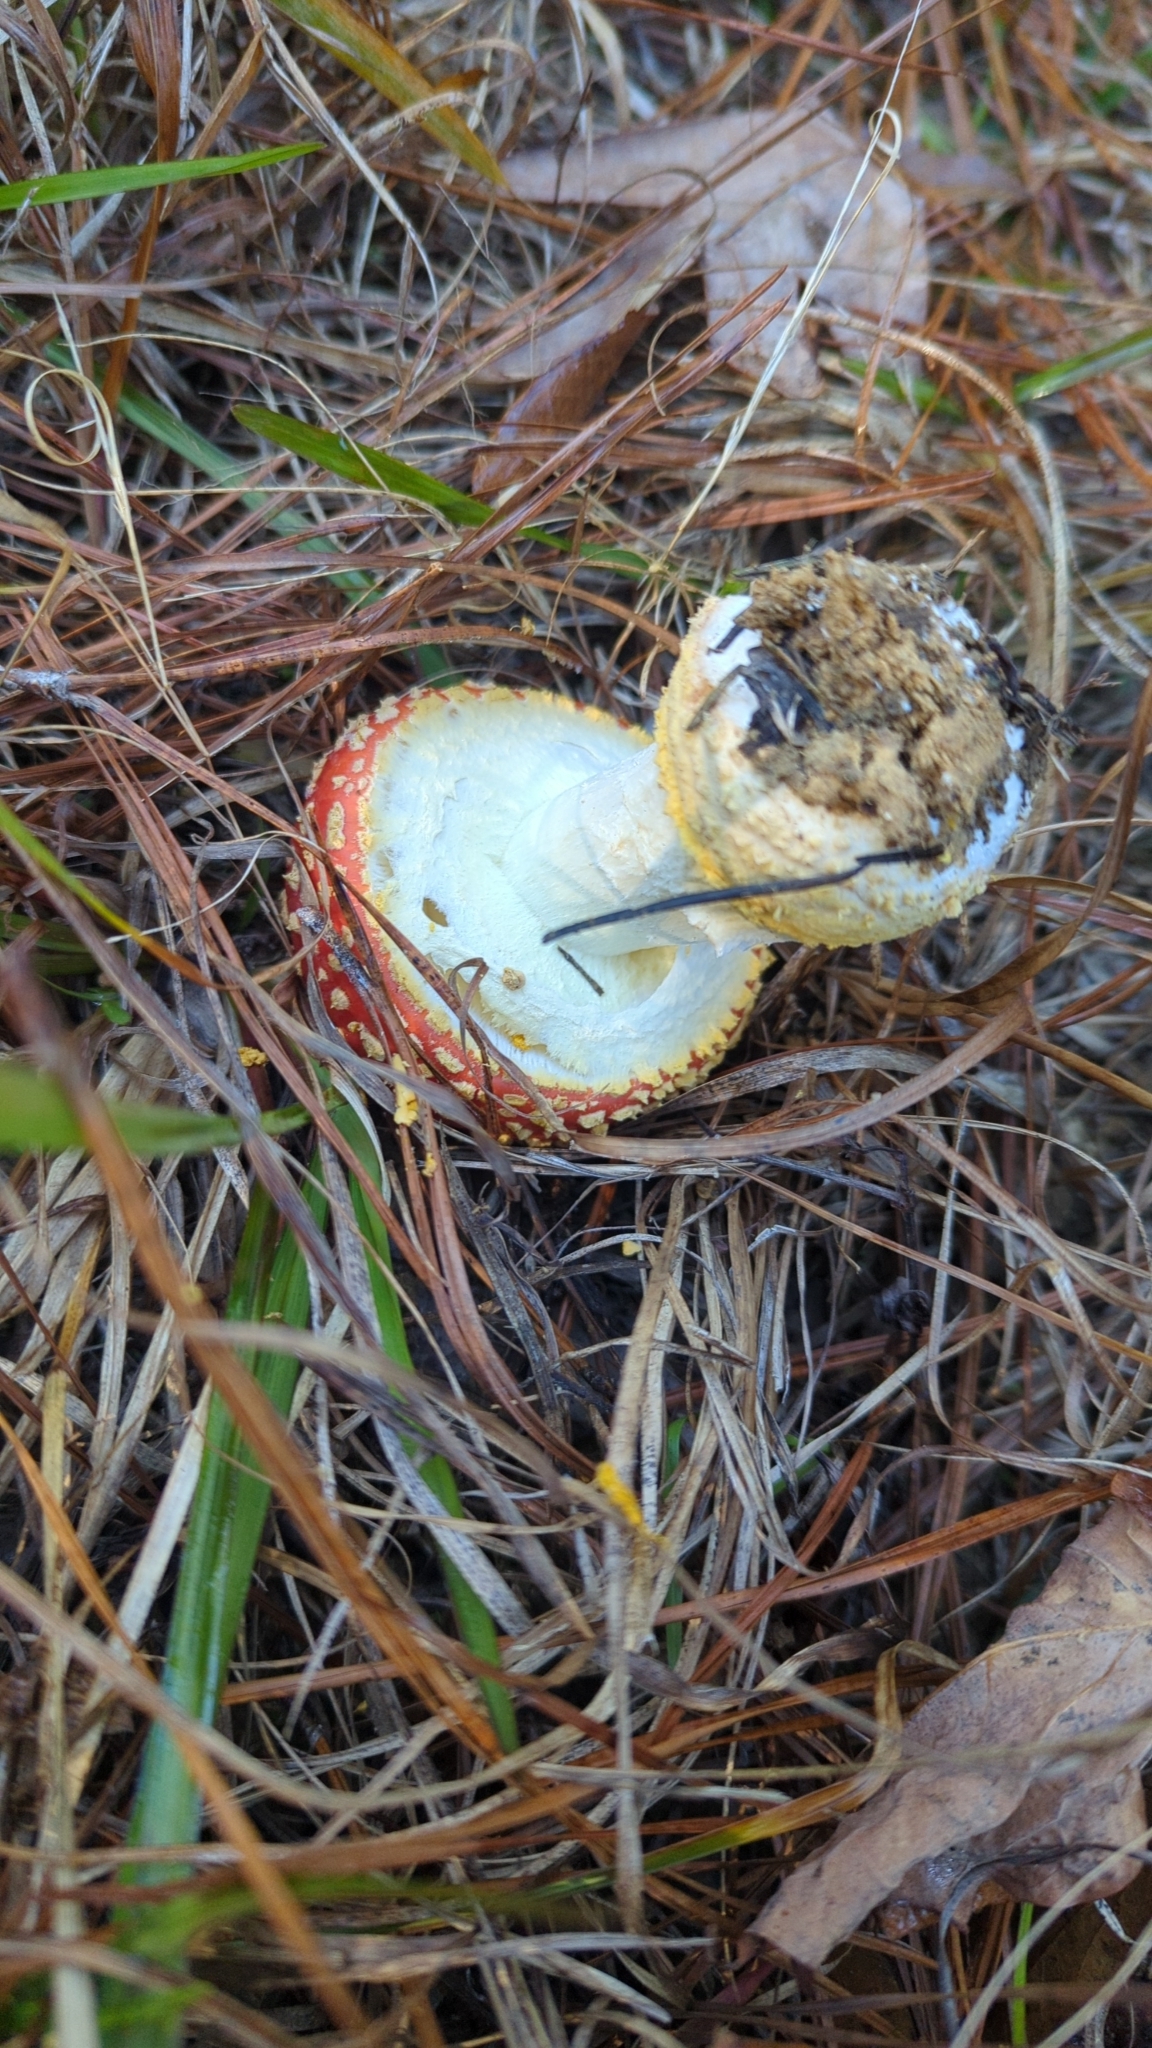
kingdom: Fungi
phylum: Basidiomycota
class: Agaricomycetes
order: Agaricales
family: Amanitaceae
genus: Amanita
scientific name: Amanita persicina
